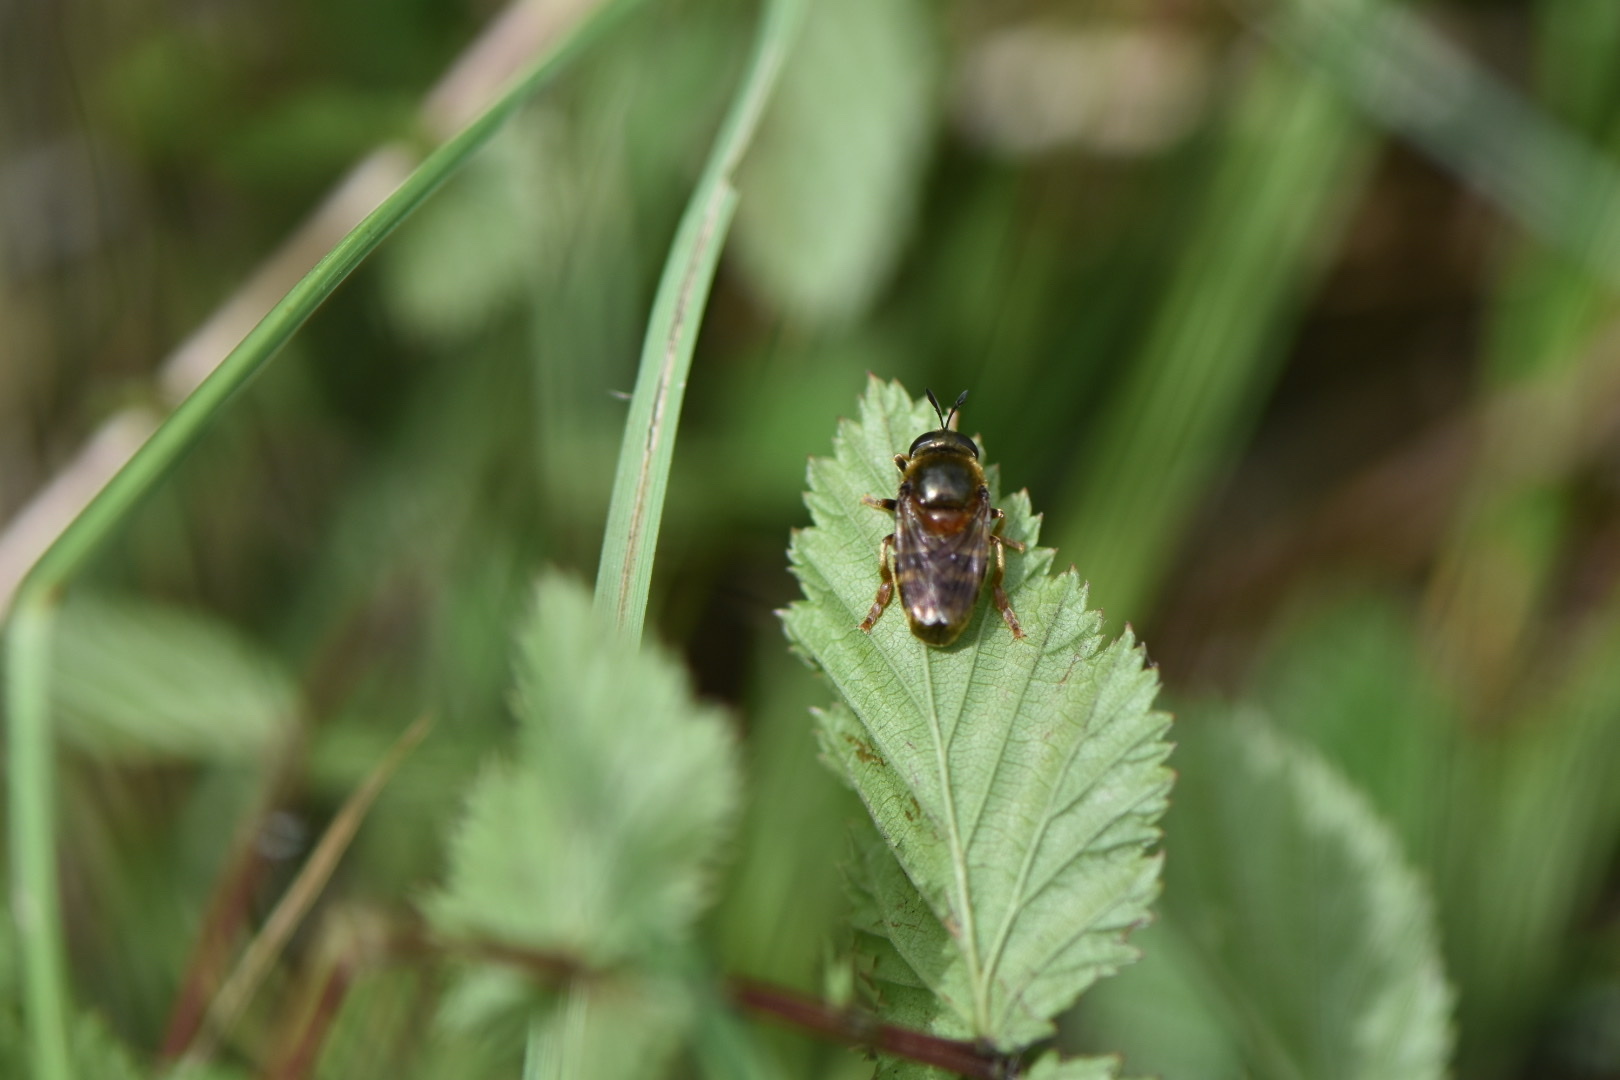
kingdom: Animalia
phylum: Arthropoda
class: Insecta
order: Diptera
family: Syrphidae
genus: Microdon
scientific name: Microdon myrmicae
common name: Bog ant fly
